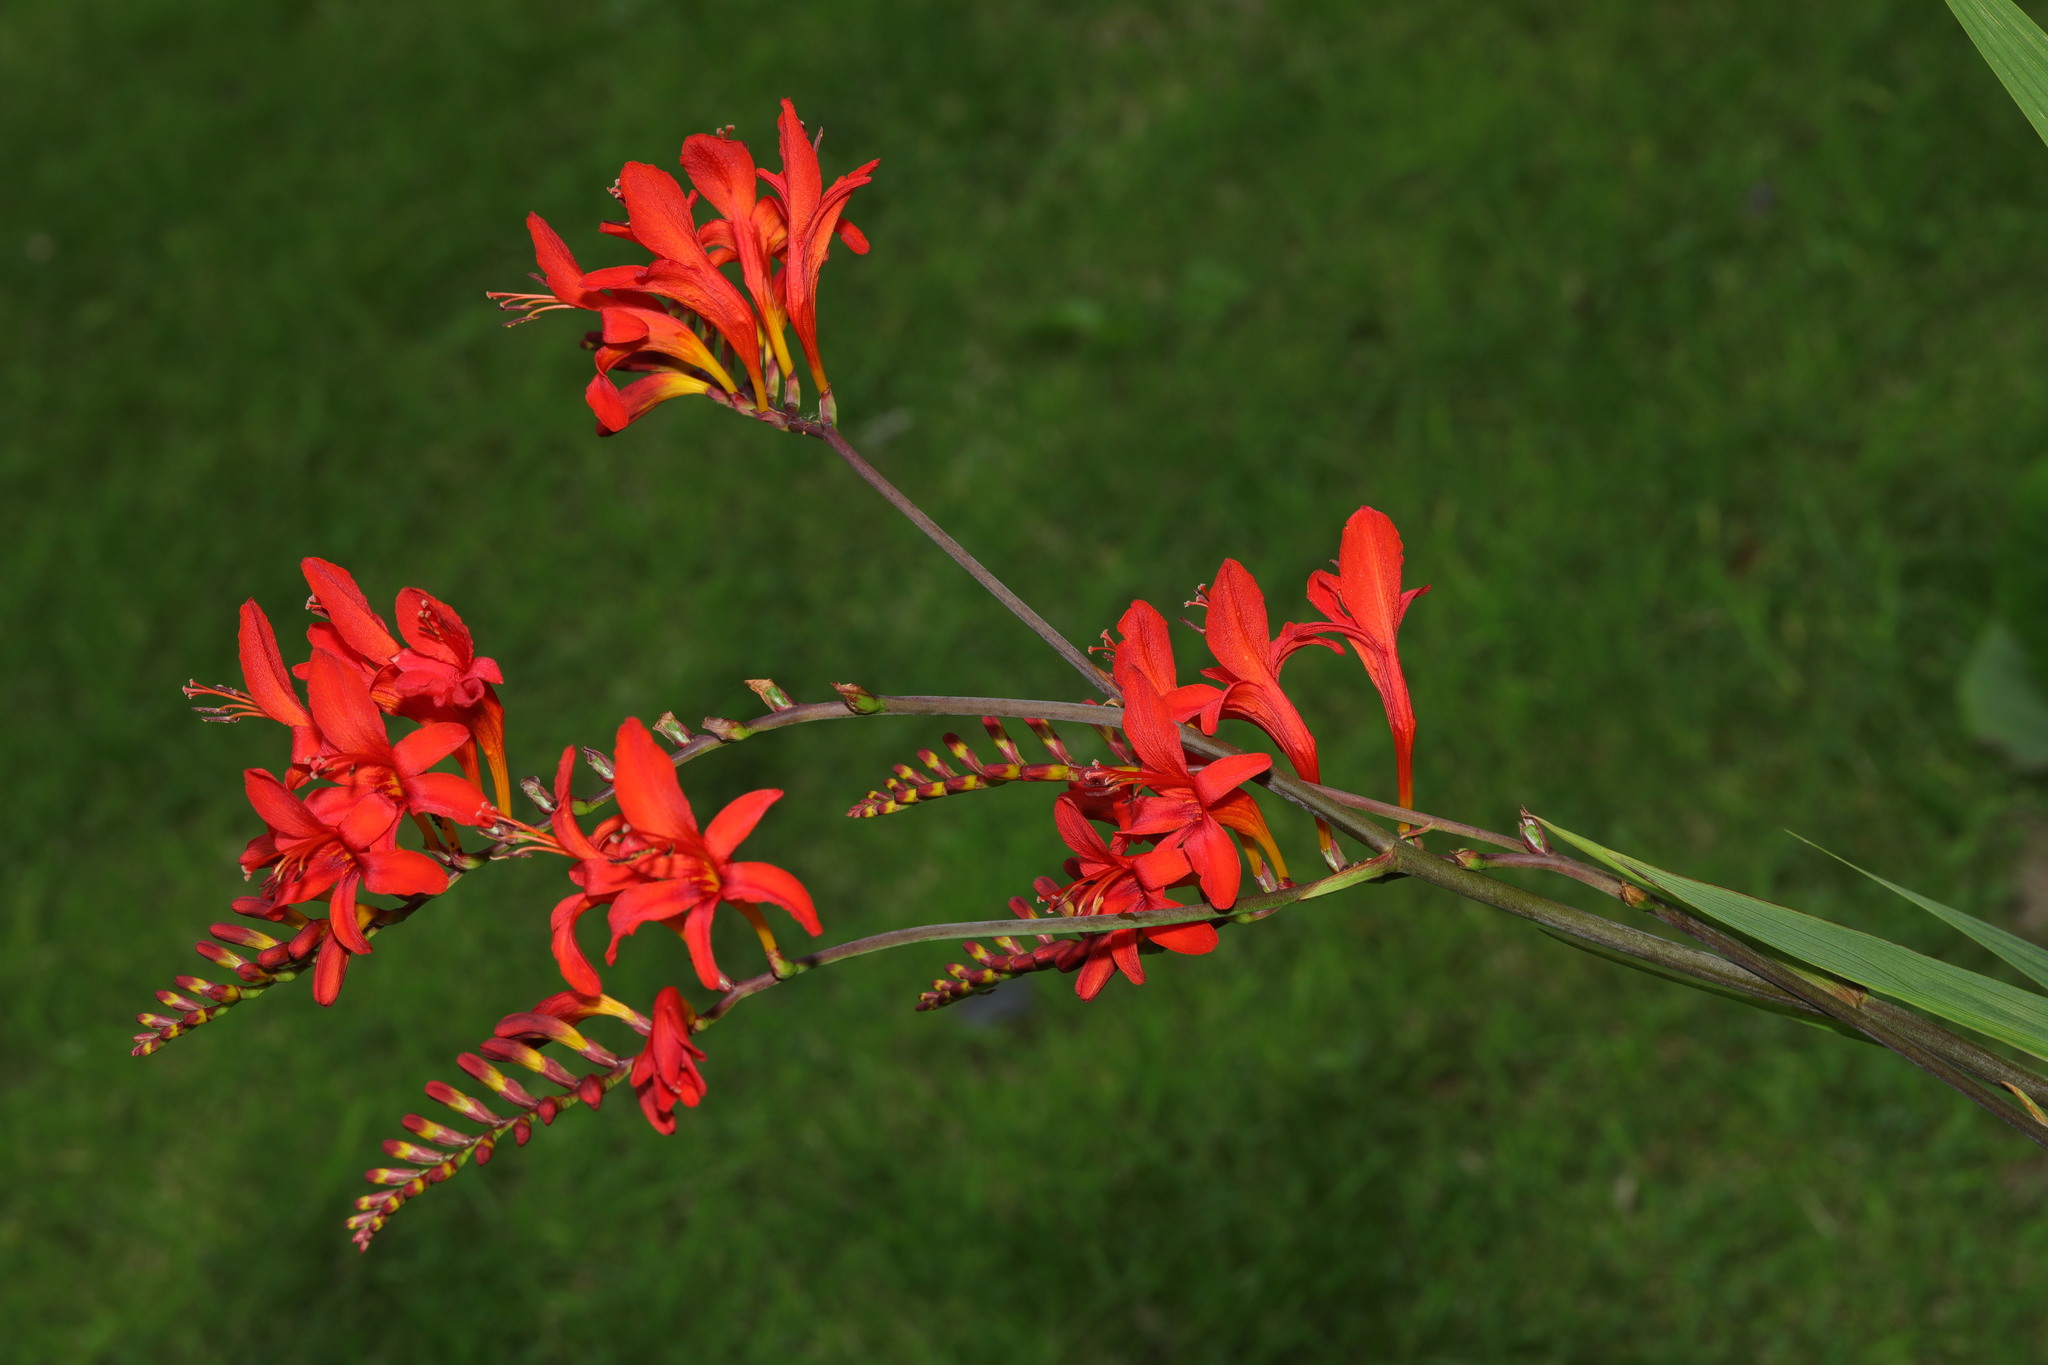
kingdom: Plantae
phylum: Tracheophyta
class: Liliopsida
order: Asparagales
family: Iridaceae
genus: Crocosmia
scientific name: Crocosmia
